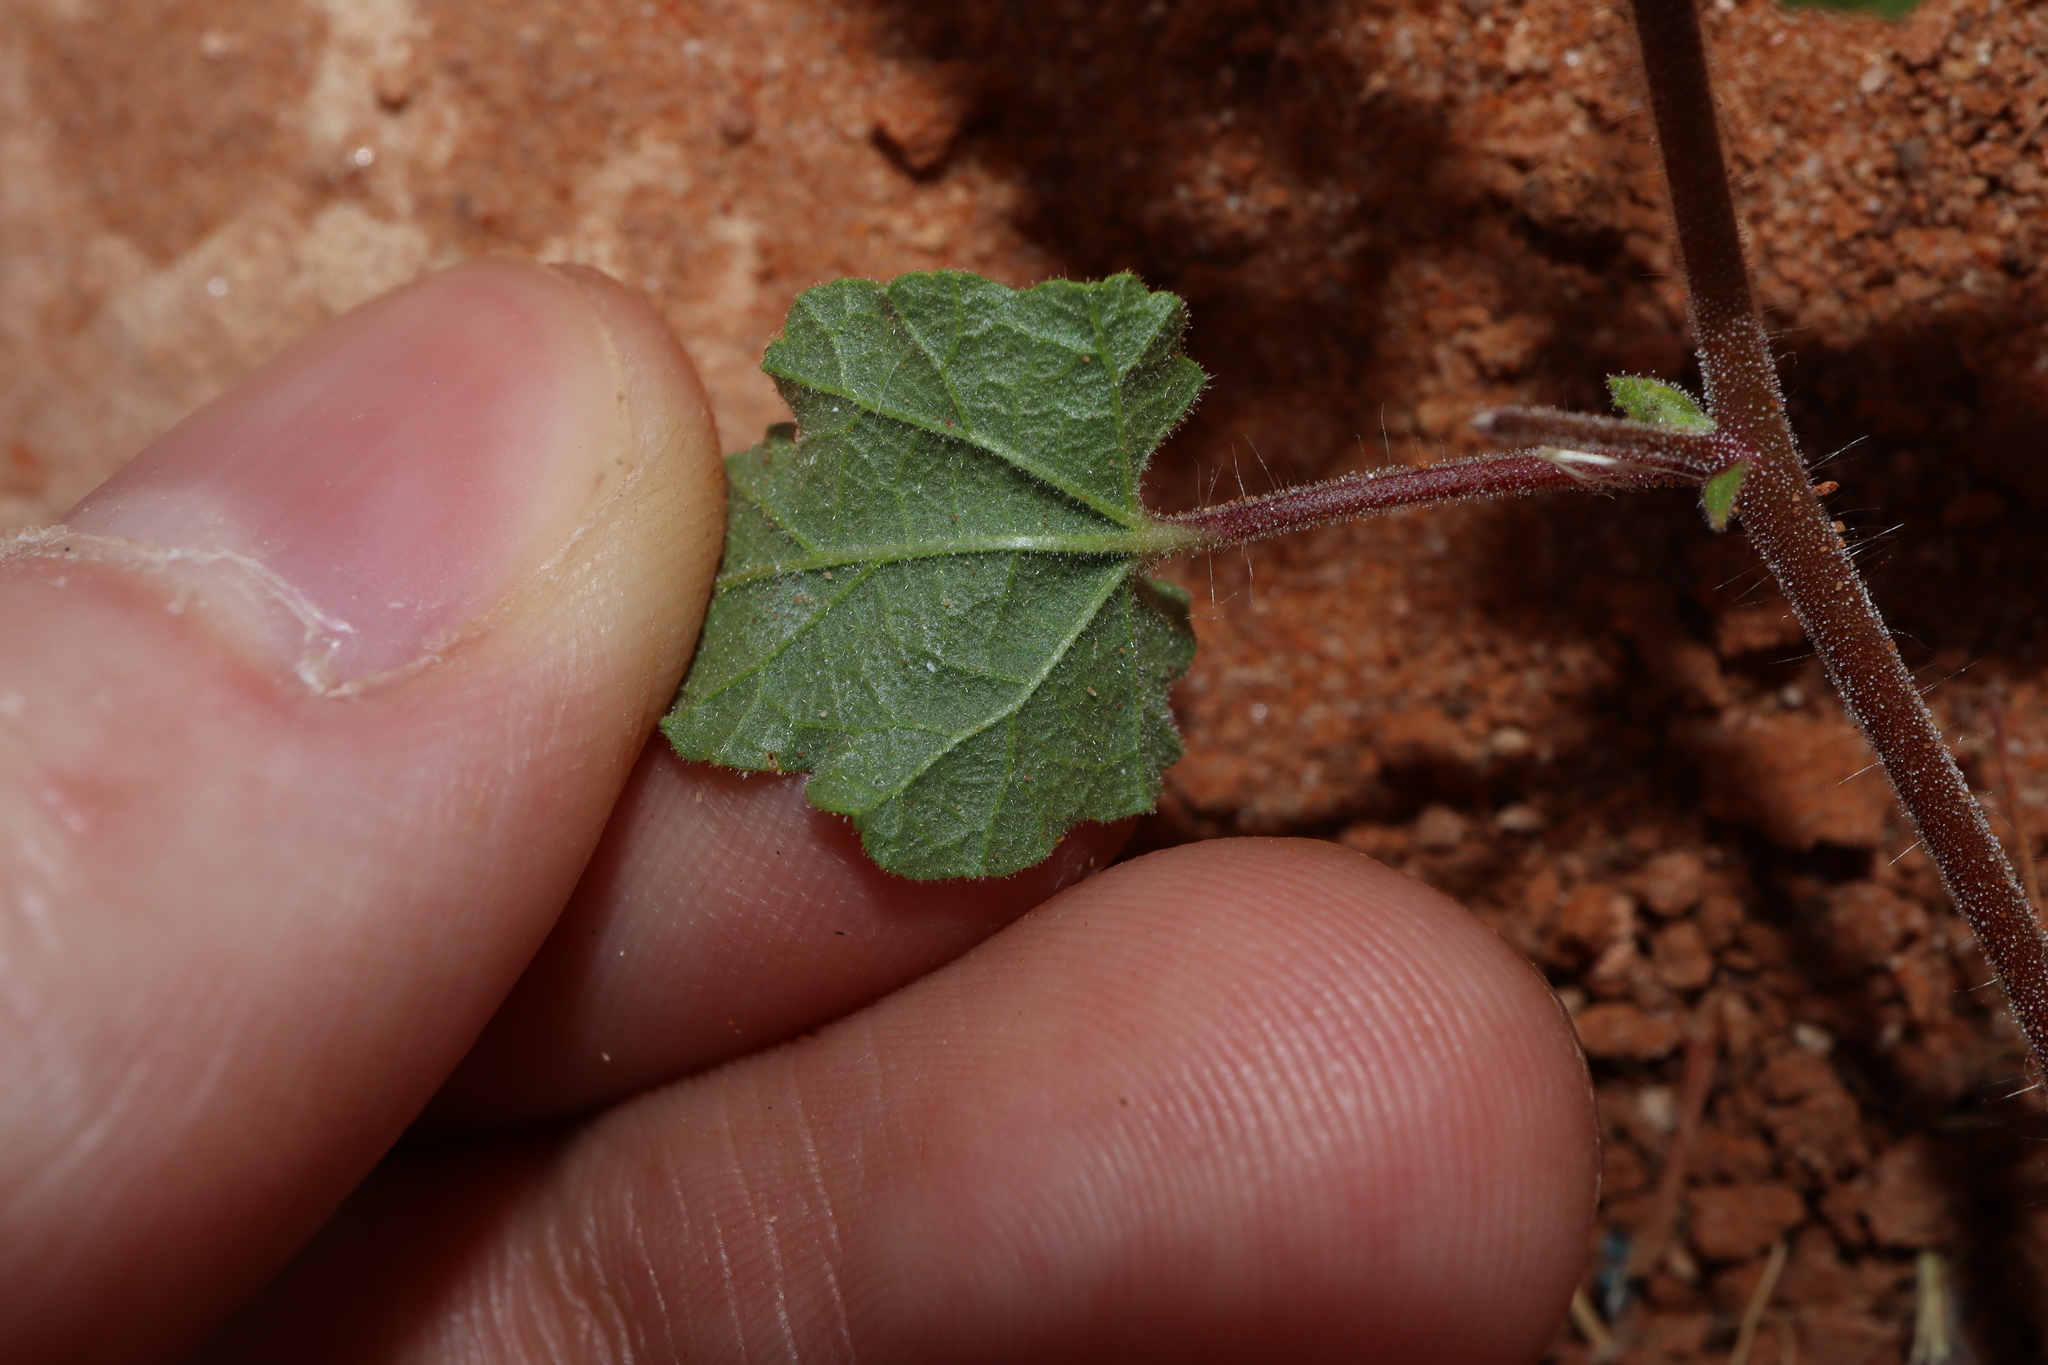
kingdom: Plantae
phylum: Tracheophyta
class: Magnoliopsida
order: Malvales
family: Malvaceae
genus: Abutilon
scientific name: Abutilon malvifolium
